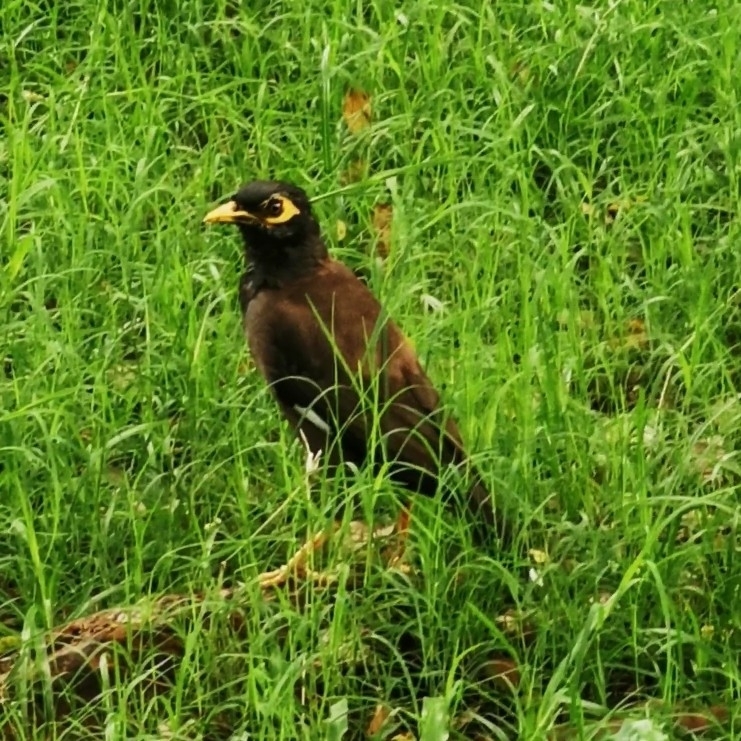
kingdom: Animalia
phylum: Chordata
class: Aves
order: Passeriformes
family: Sturnidae
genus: Acridotheres
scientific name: Acridotheres tristis
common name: Common myna
